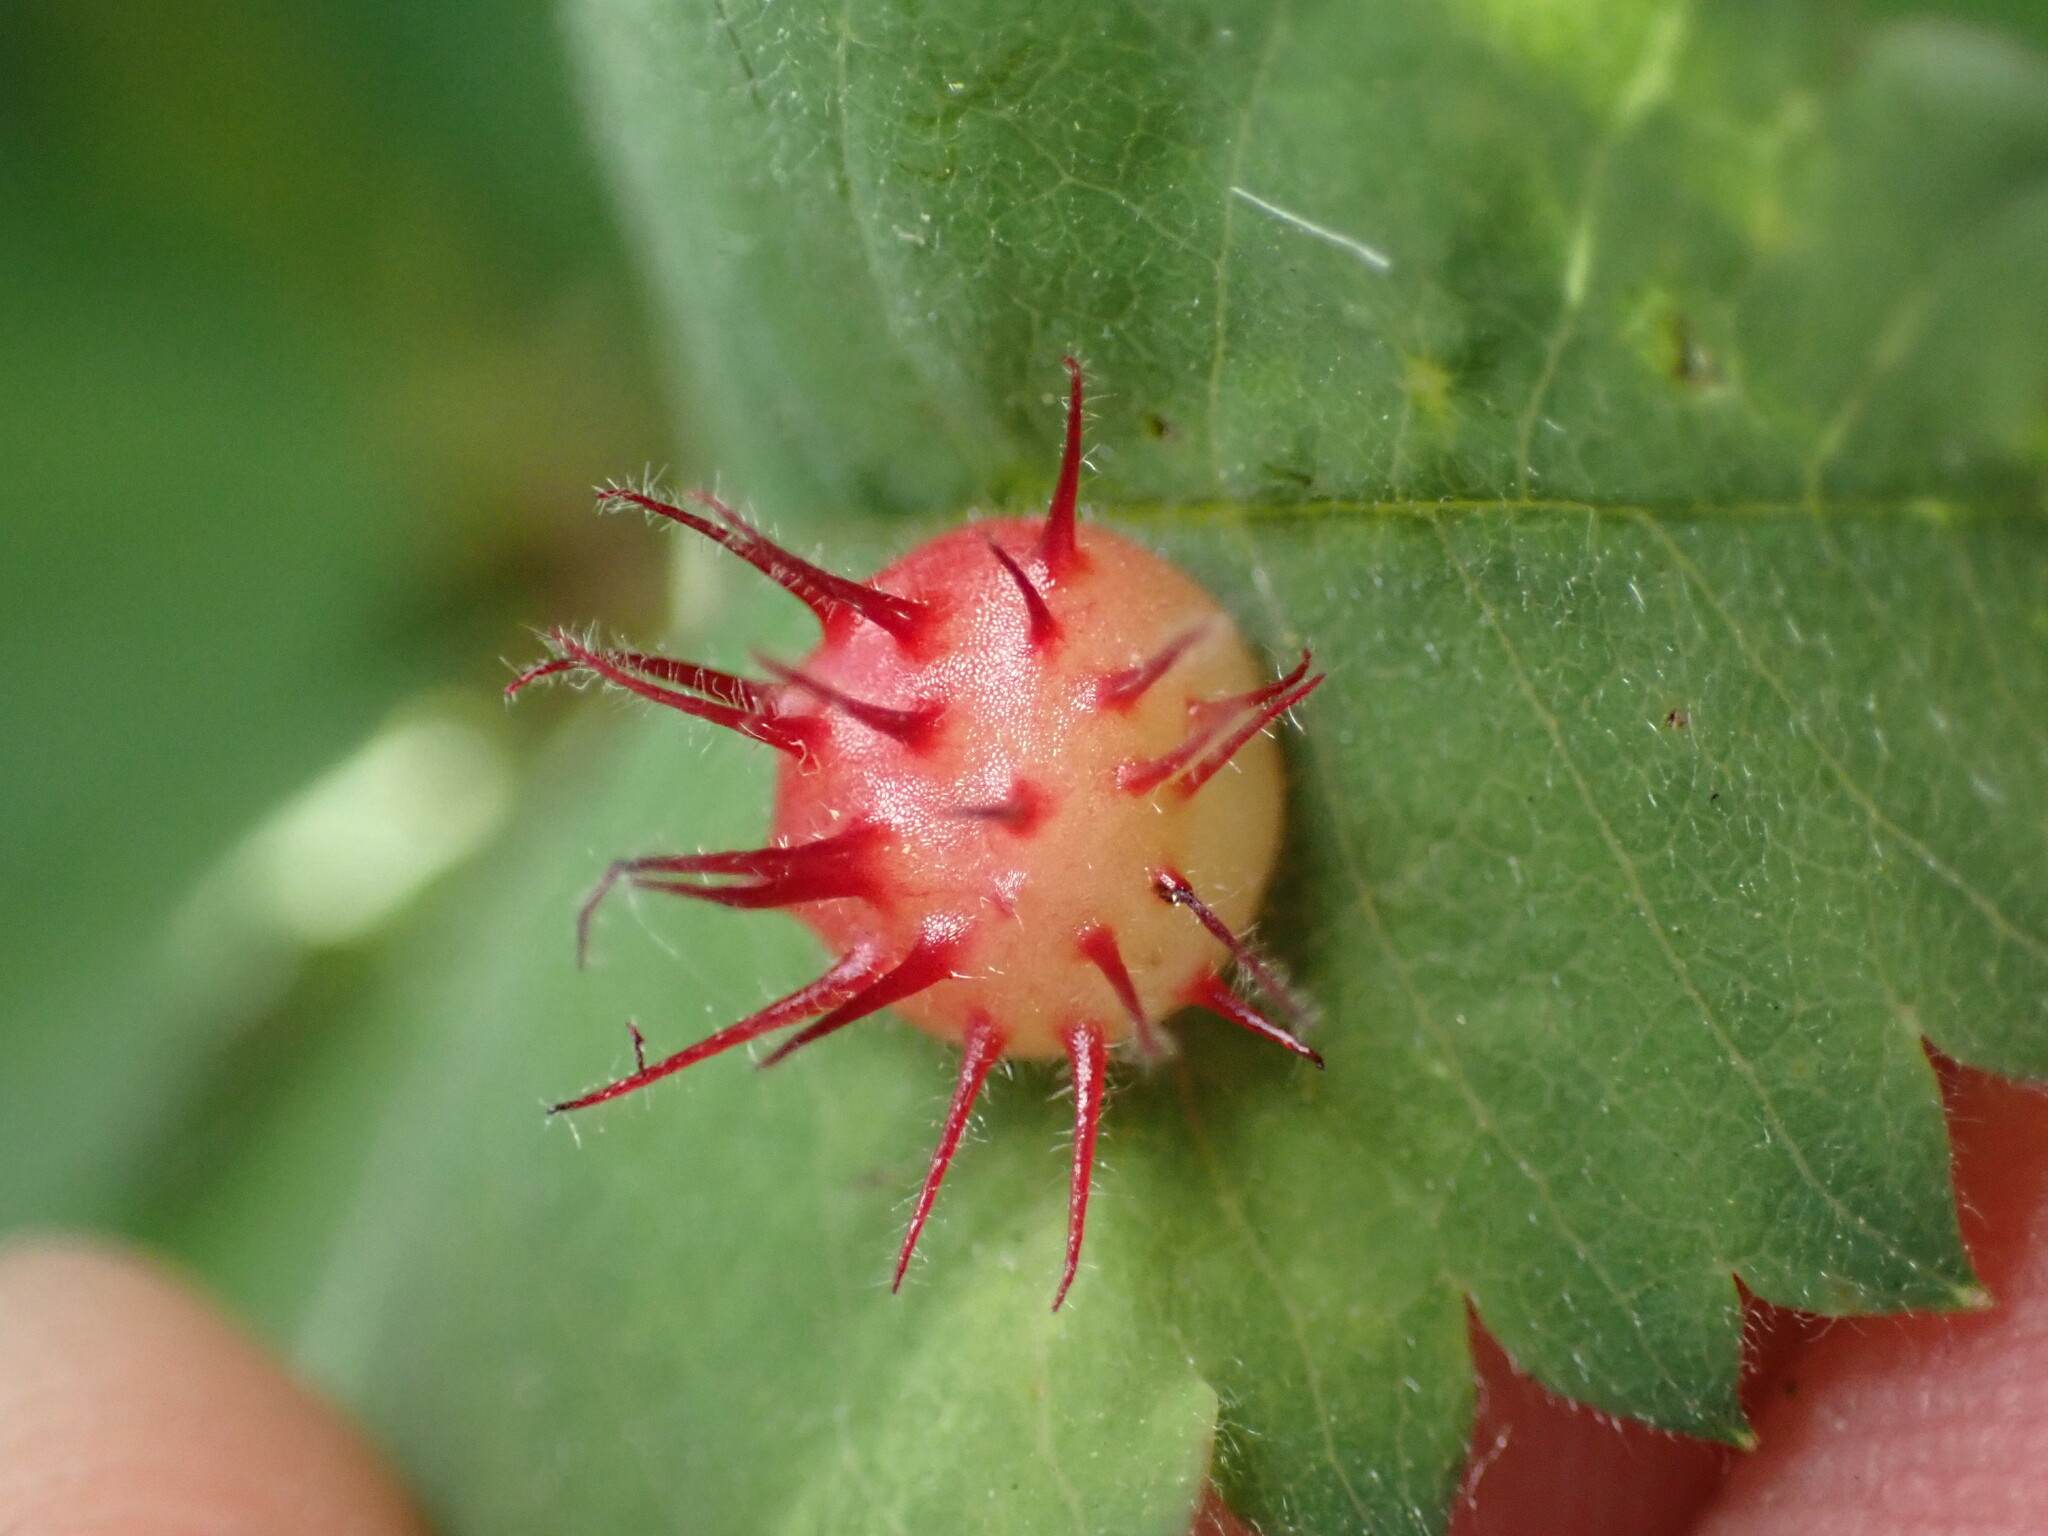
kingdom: Animalia
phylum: Arthropoda
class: Insecta
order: Hymenoptera
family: Cynipidae
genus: Diplolepis
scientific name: Diplolepis polita
